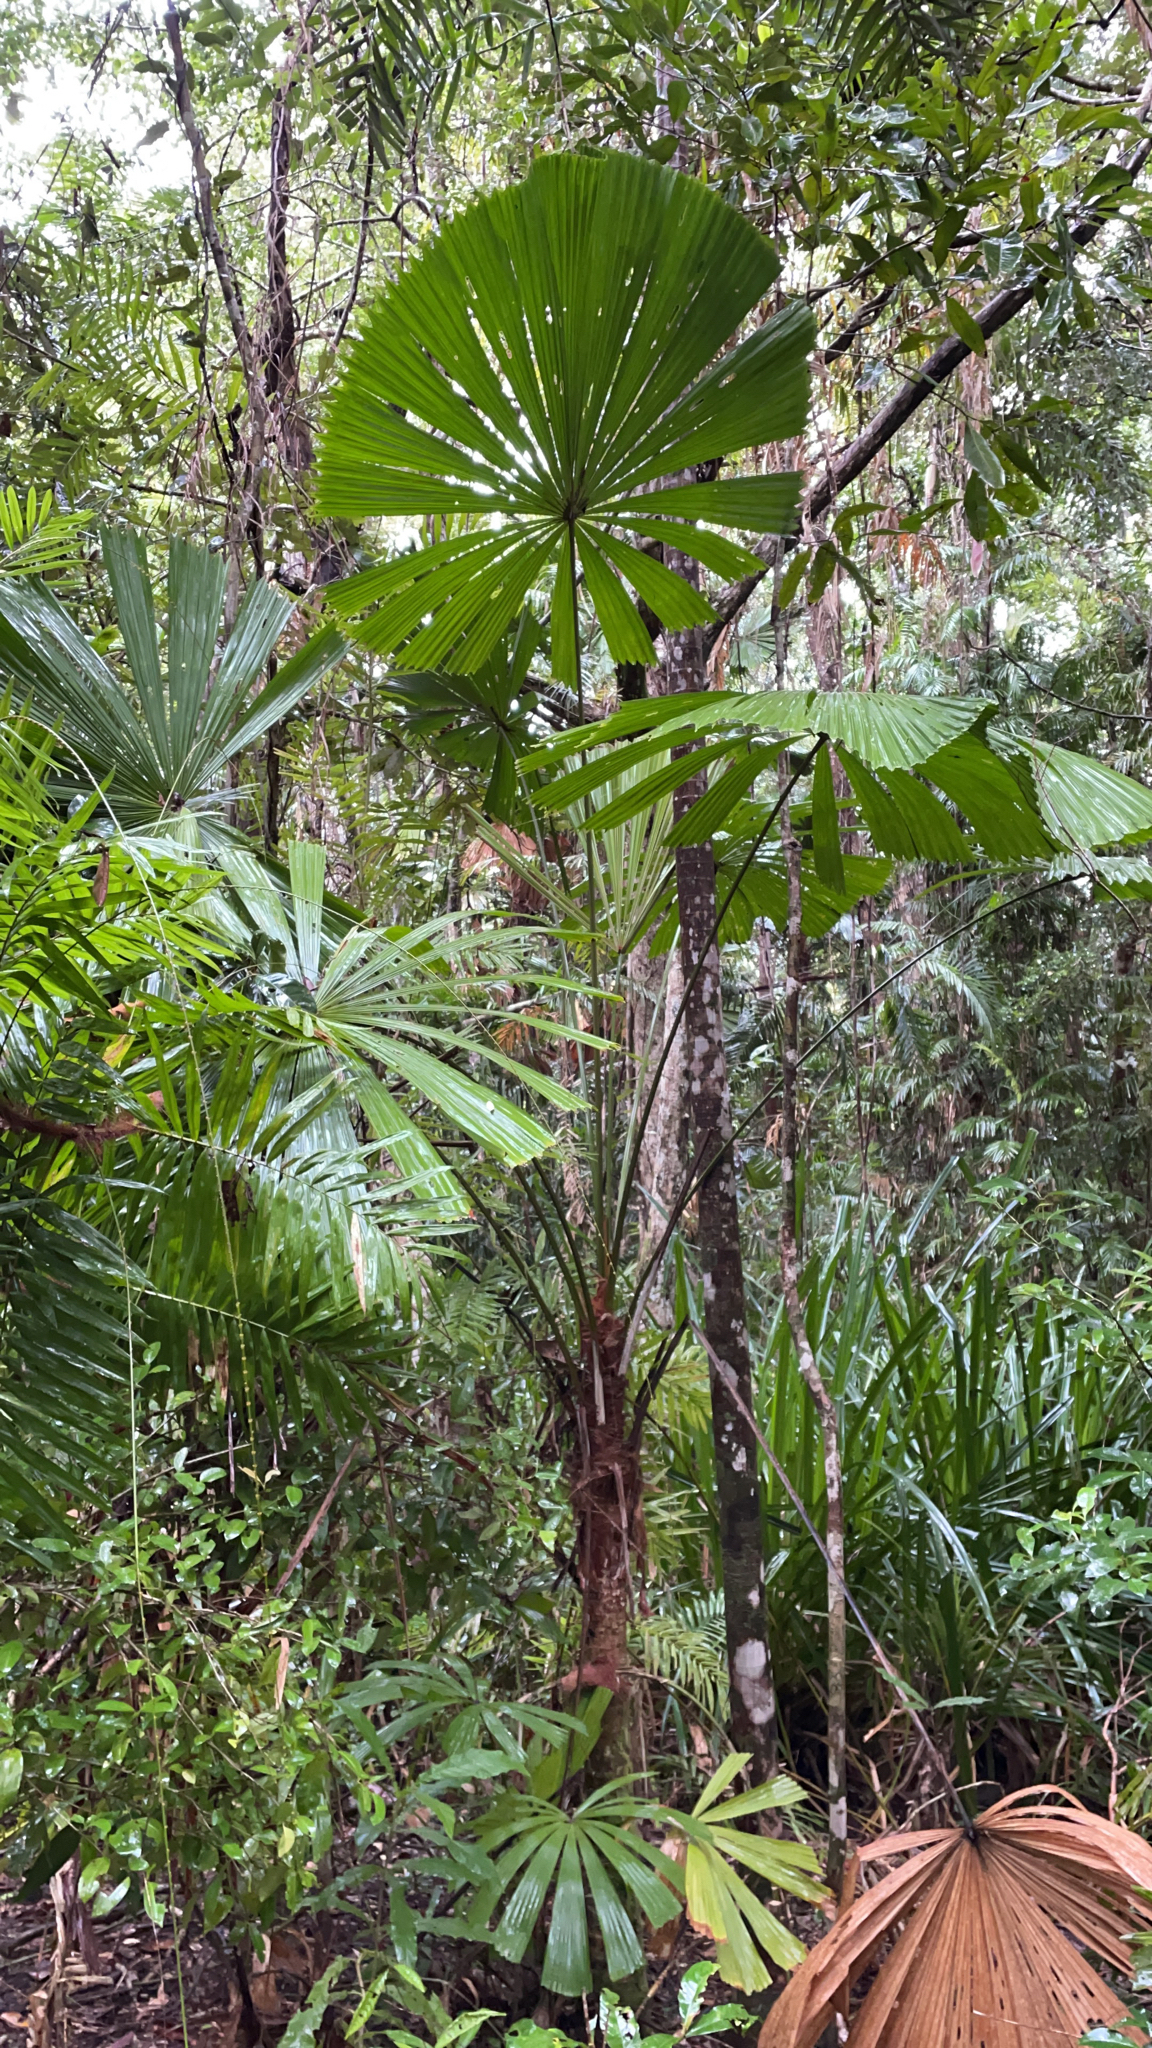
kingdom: Plantae
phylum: Tracheophyta
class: Liliopsida
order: Arecales
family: Arecaceae
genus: Licuala
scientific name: Licuala ramsayi
